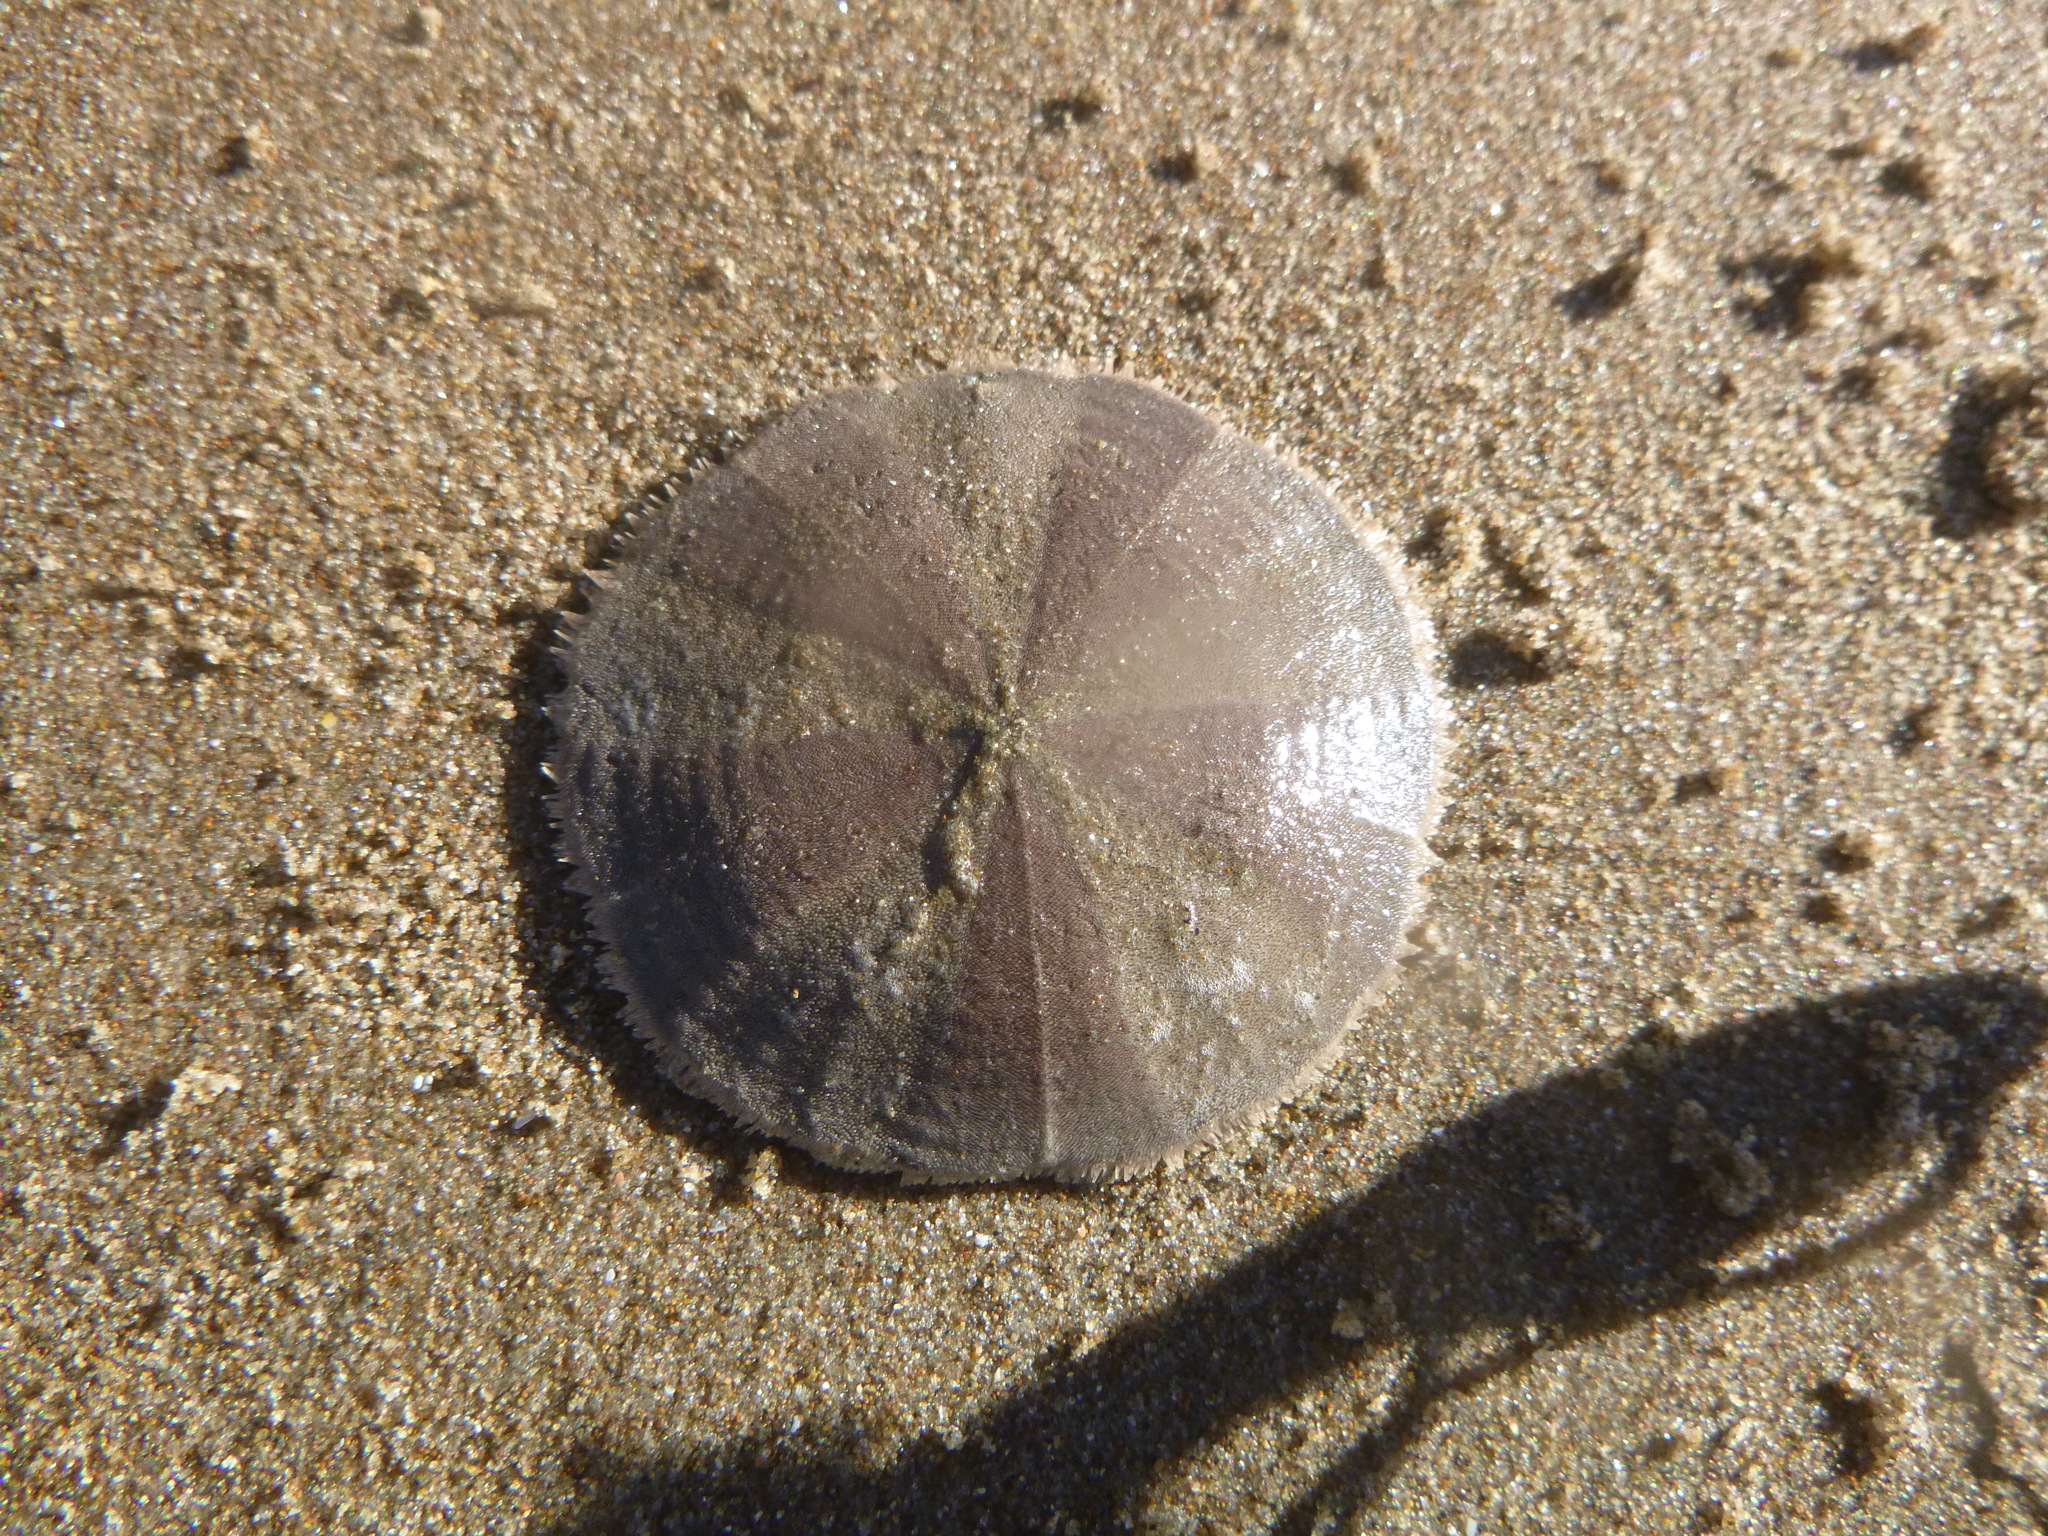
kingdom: Animalia
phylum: Echinodermata
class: Echinoidea
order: Clypeasteroida
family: Clypeasteridae
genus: Fellaster
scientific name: Fellaster zelandiae
